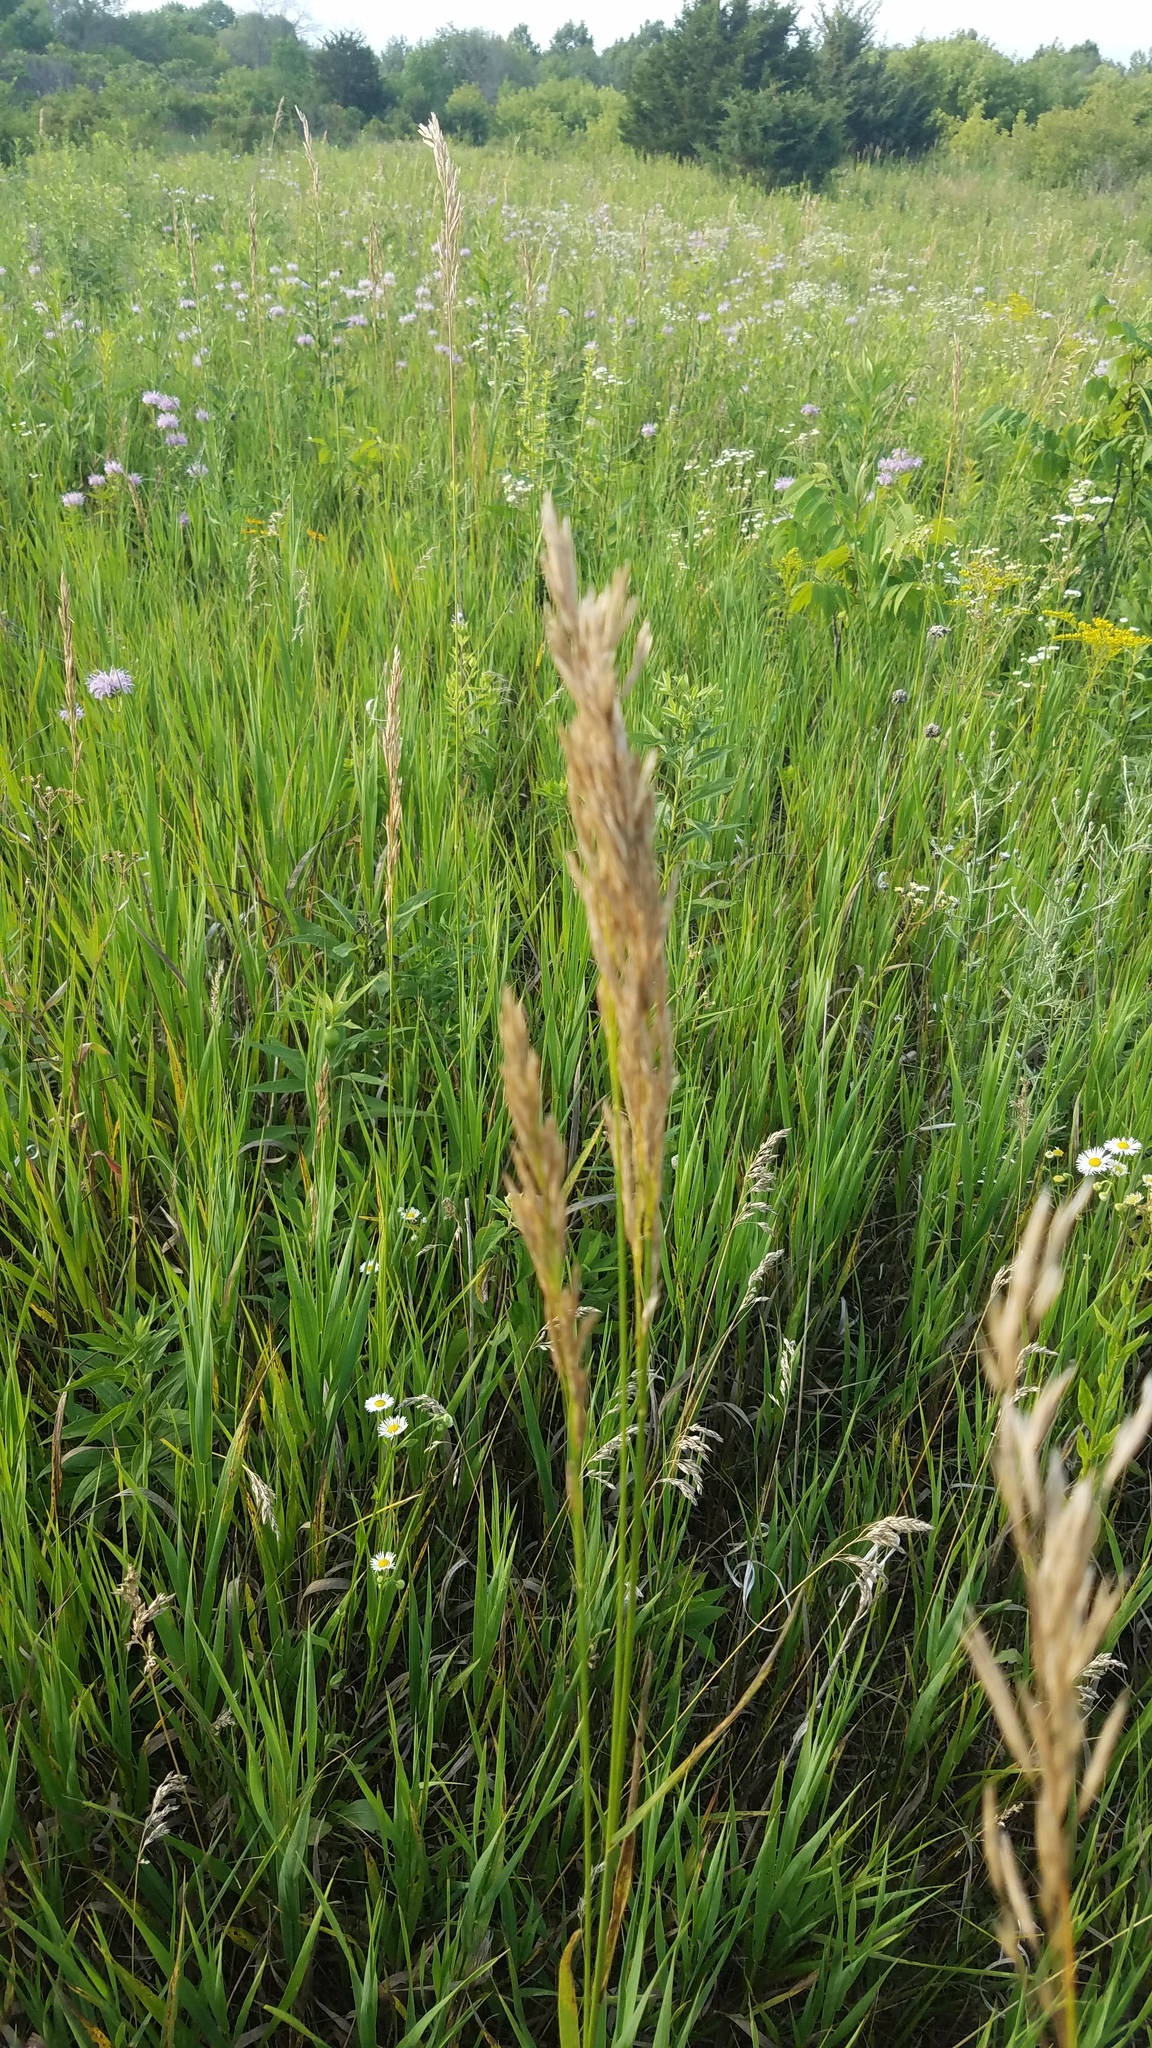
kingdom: Plantae
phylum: Tracheophyta
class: Liliopsida
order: Poales
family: Poaceae
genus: Bromus
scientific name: Bromus inermis
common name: Smooth brome
